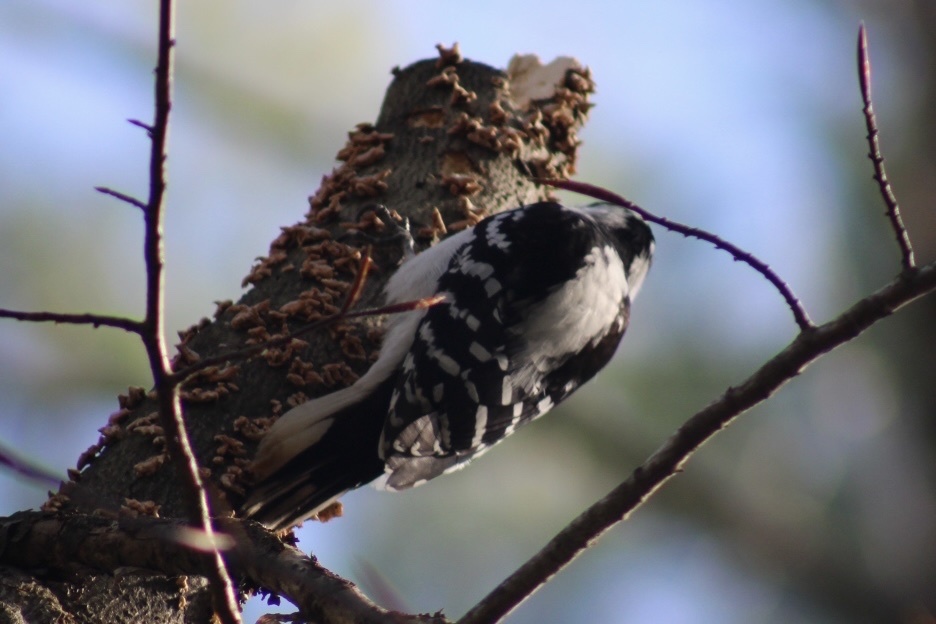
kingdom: Animalia
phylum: Chordata
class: Aves
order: Piciformes
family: Picidae
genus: Leuconotopicus
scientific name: Leuconotopicus villosus
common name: Hairy woodpecker
